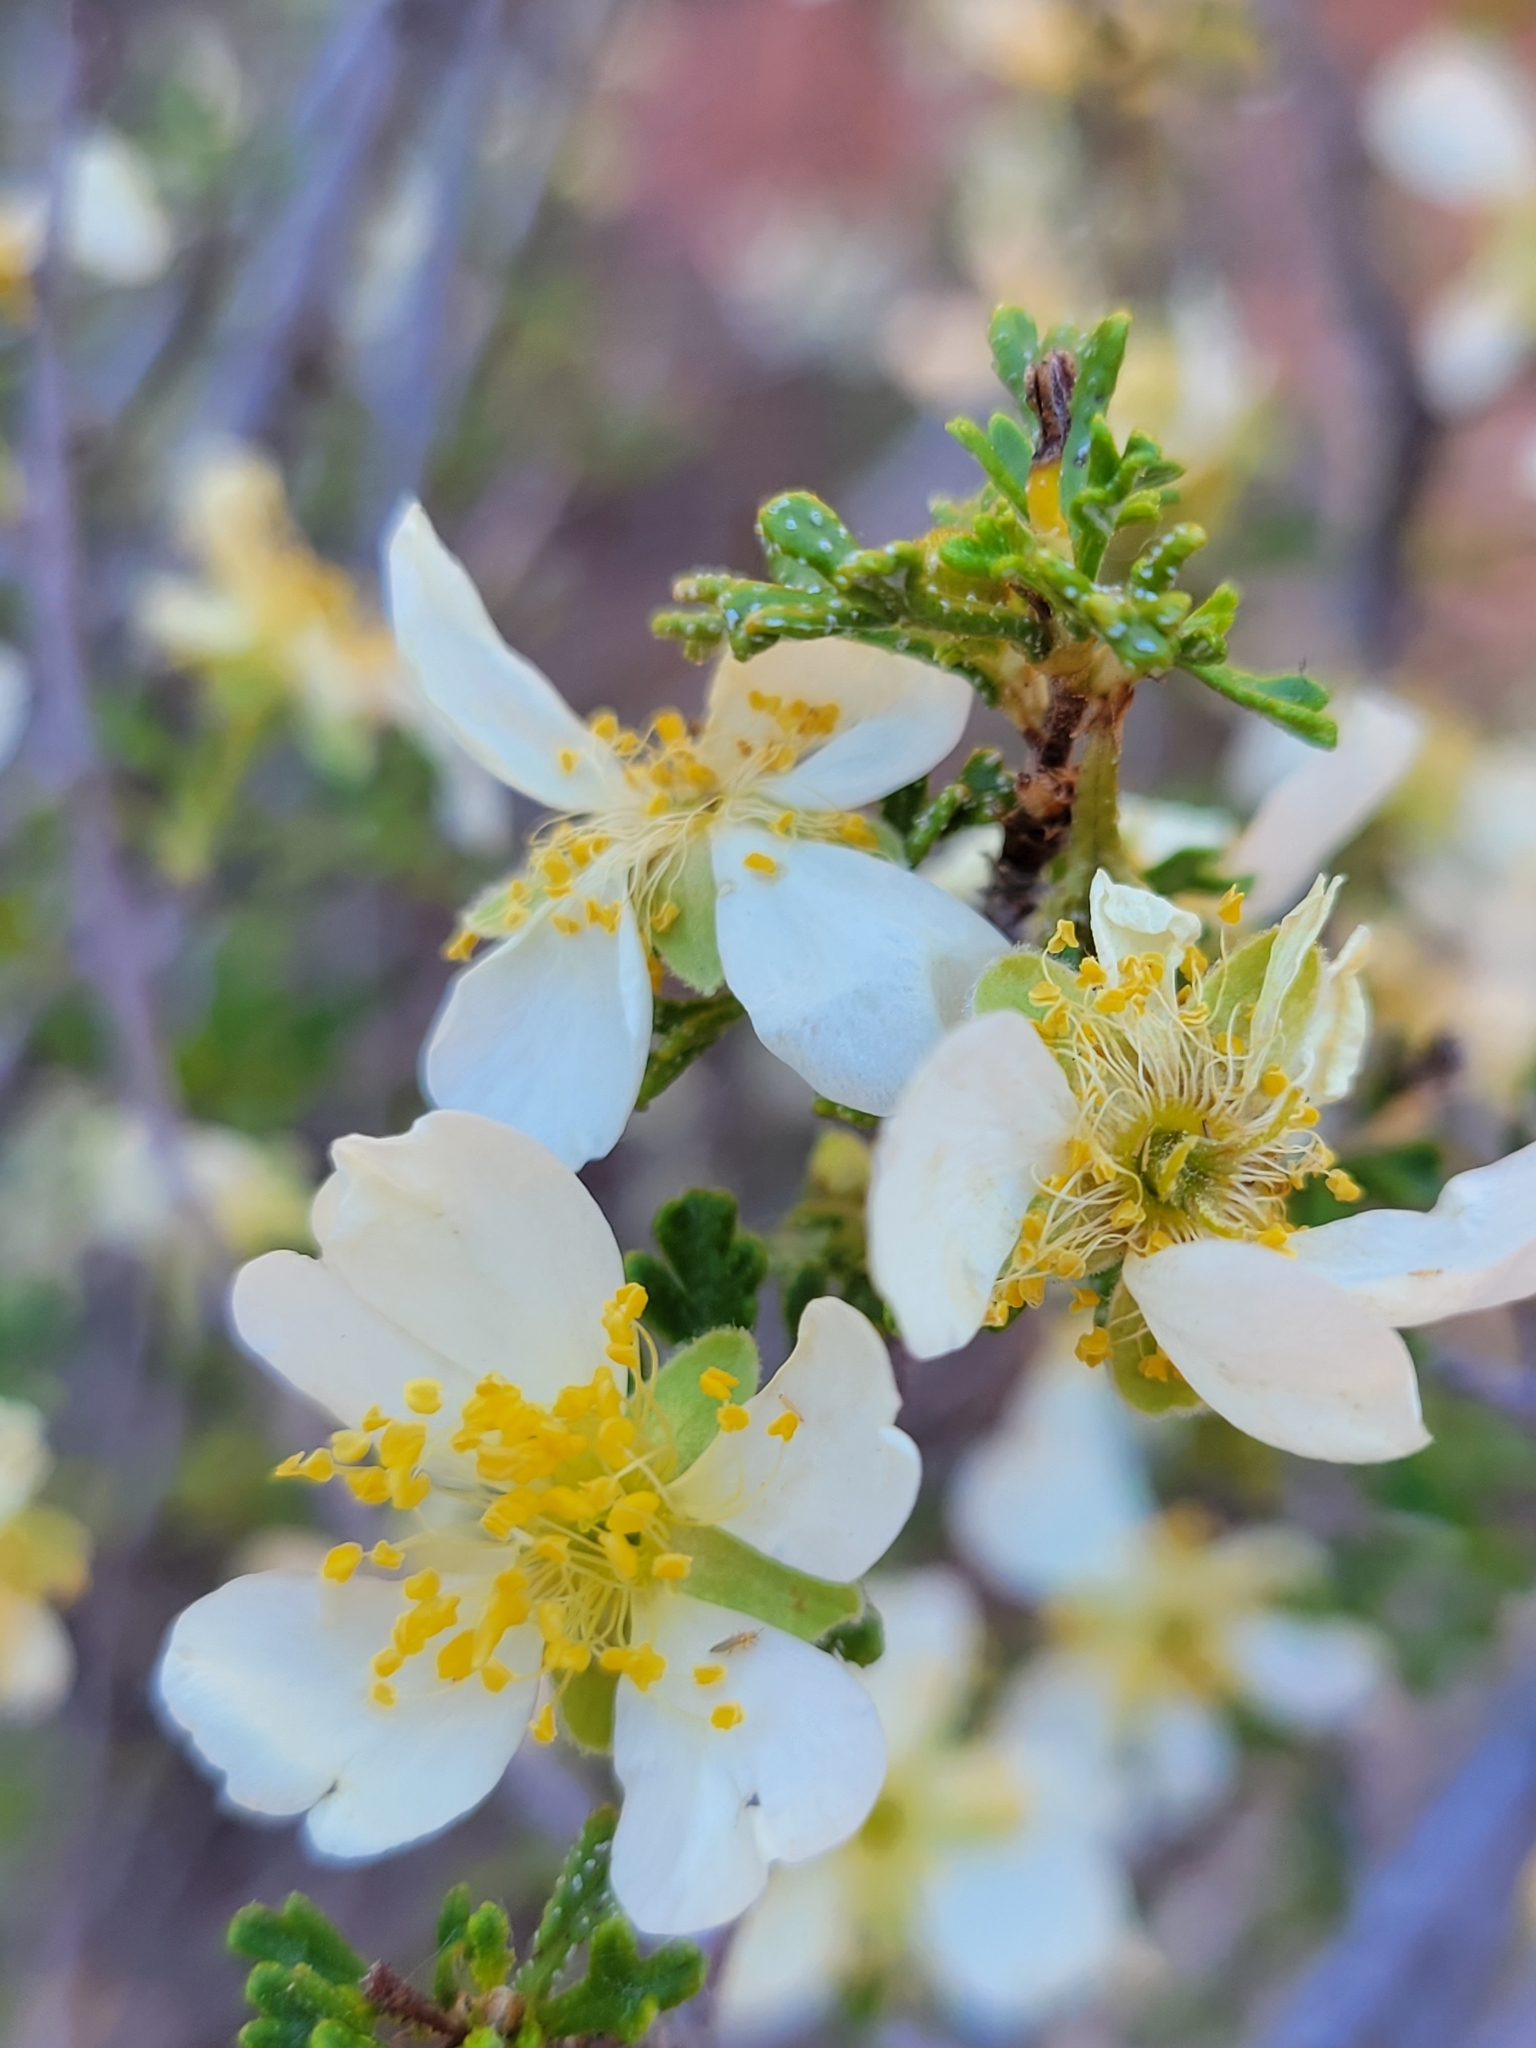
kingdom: Plantae
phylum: Tracheophyta
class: Magnoliopsida
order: Rosales
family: Rosaceae
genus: Purshia
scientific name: Purshia stansburiana
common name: Stansbury's cliffrose
